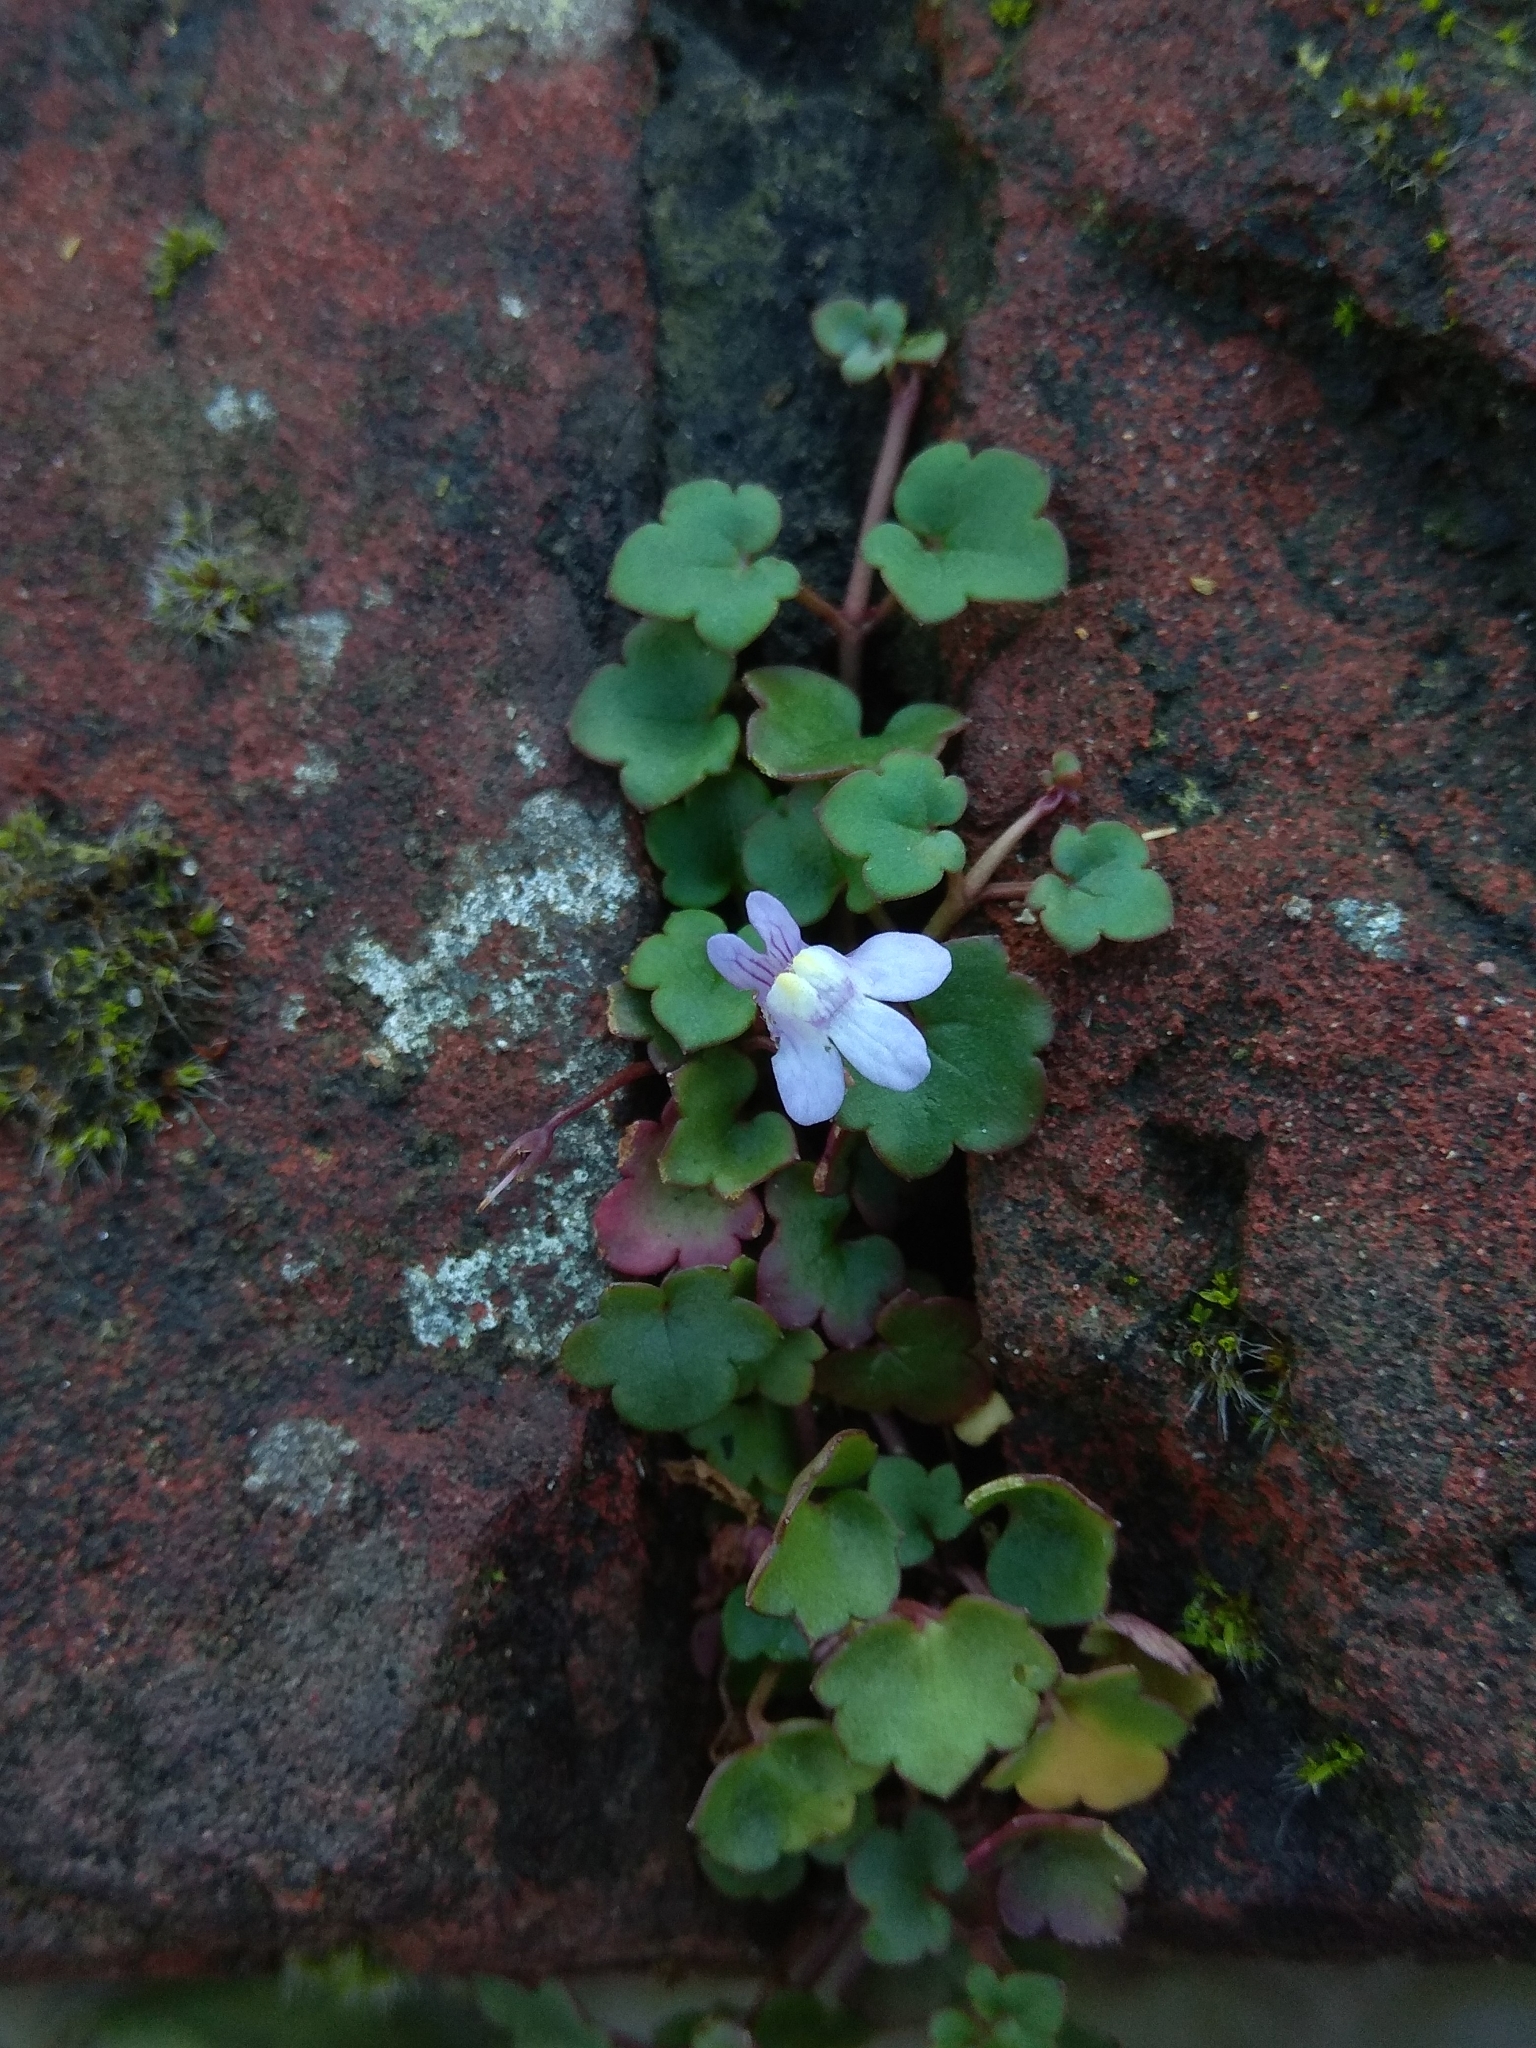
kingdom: Plantae
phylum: Tracheophyta
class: Magnoliopsida
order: Lamiales
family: Plantaginaceae
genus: Cymbalaria
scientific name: Cymbalaria muralis
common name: Ivy-leaved toadflax
